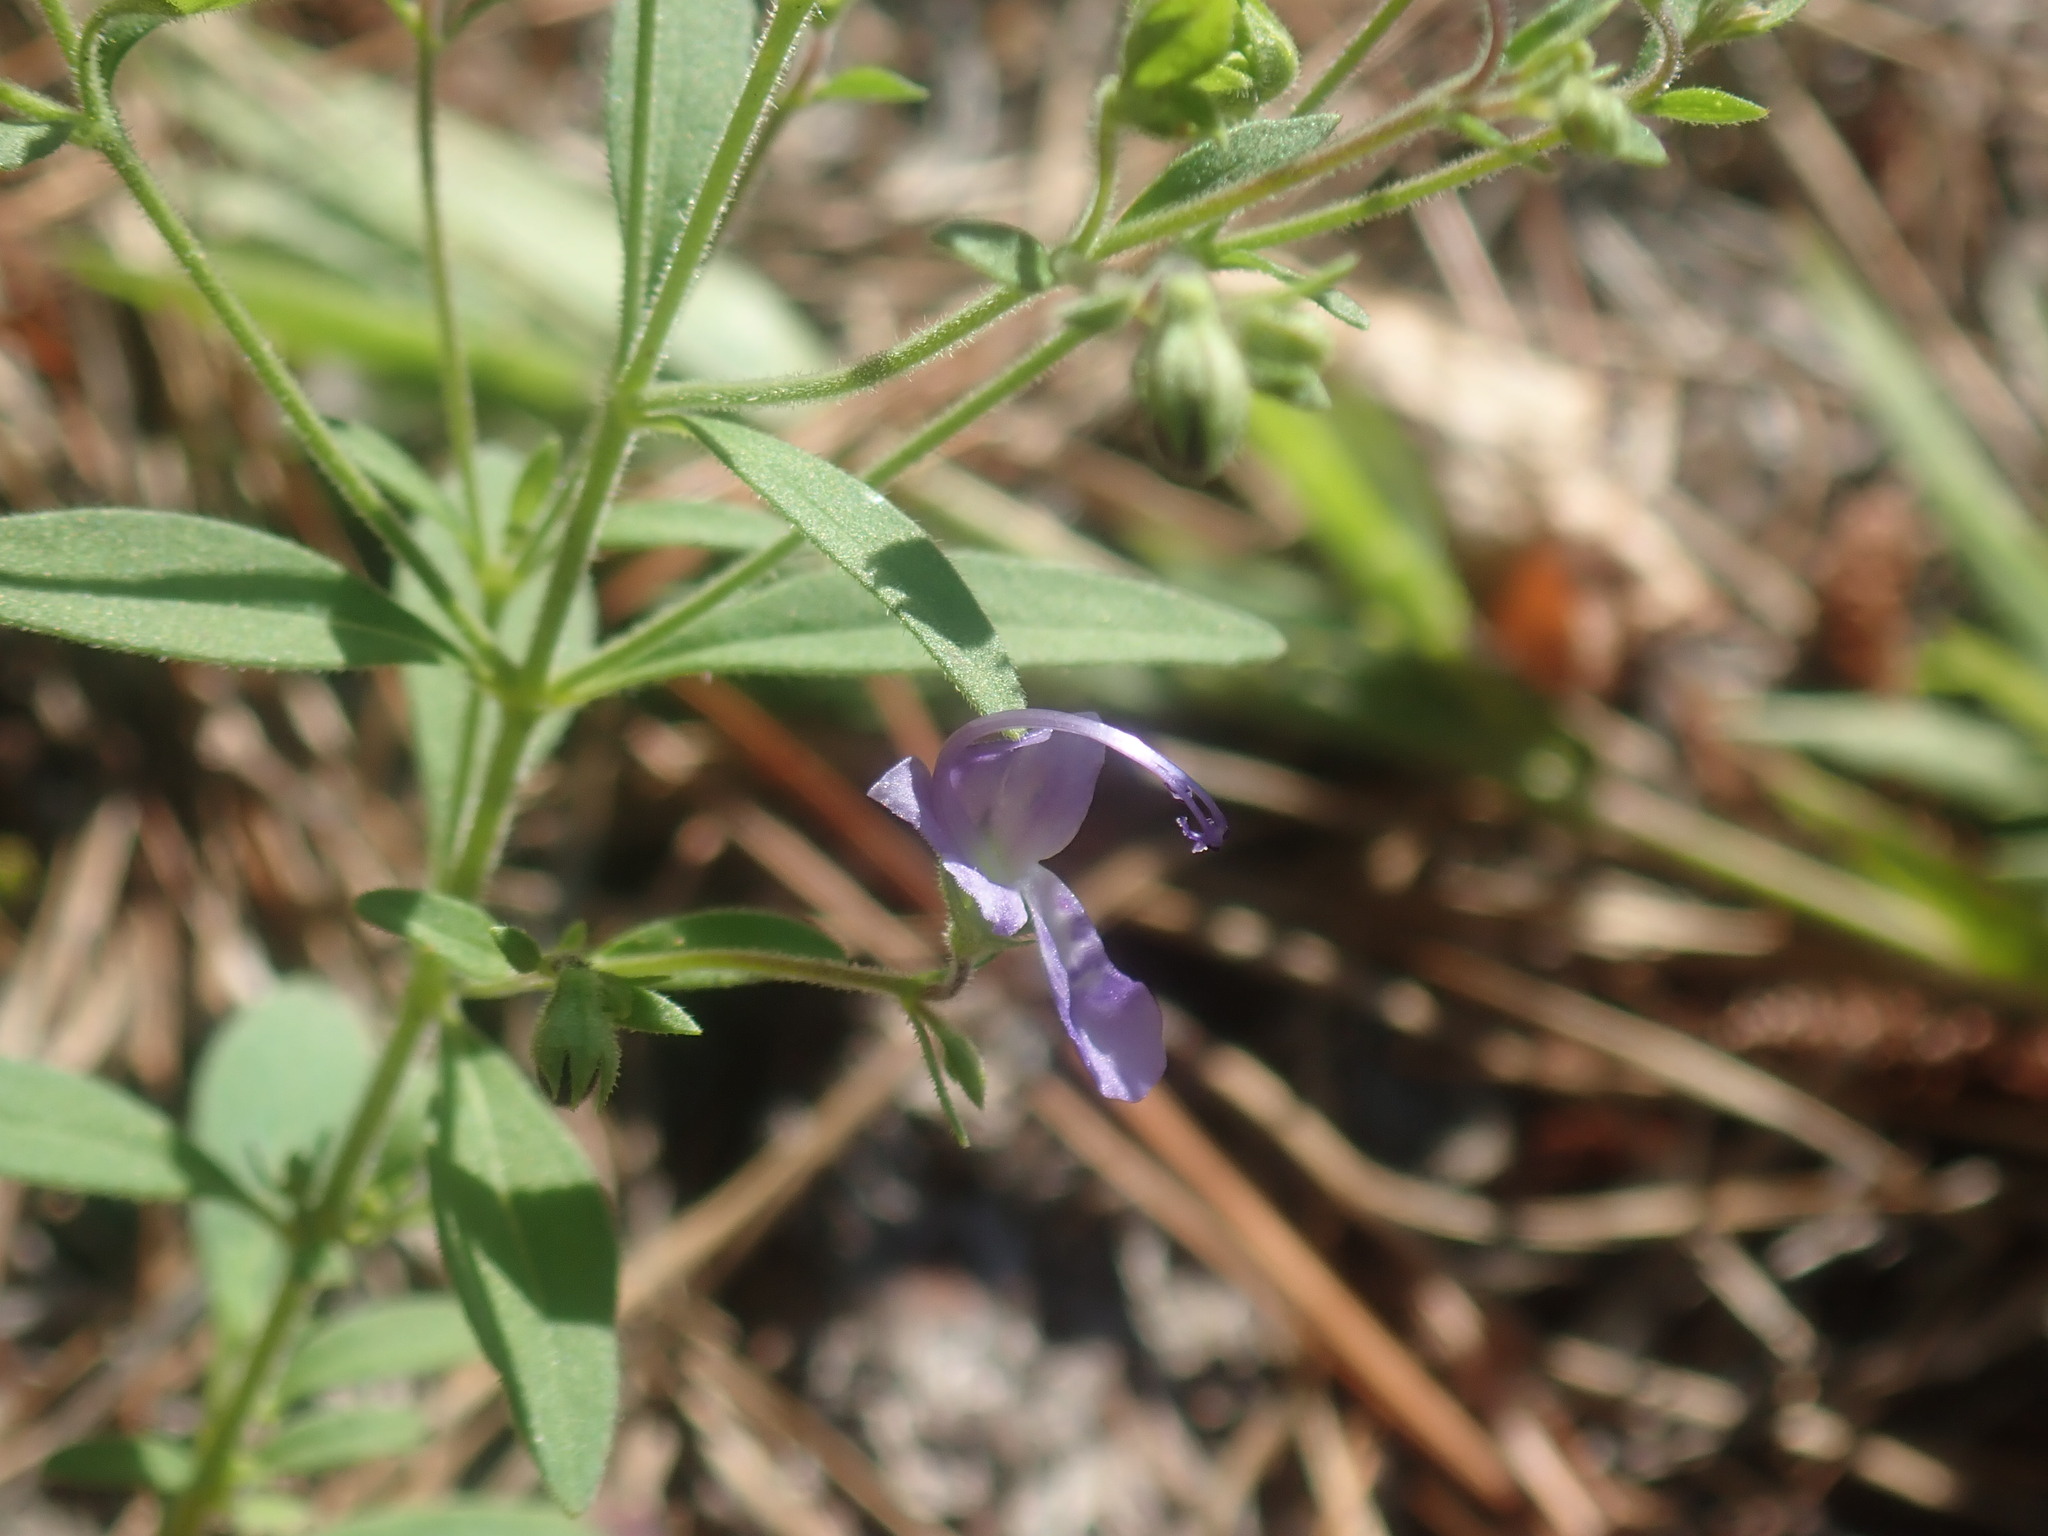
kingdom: Plantae
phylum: Tracheophyta
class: Magnoliopsida
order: Lamiales
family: Lamiaceae
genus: Trichostema
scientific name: Trichostema dichotomum
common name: Bastard pennyroyal
